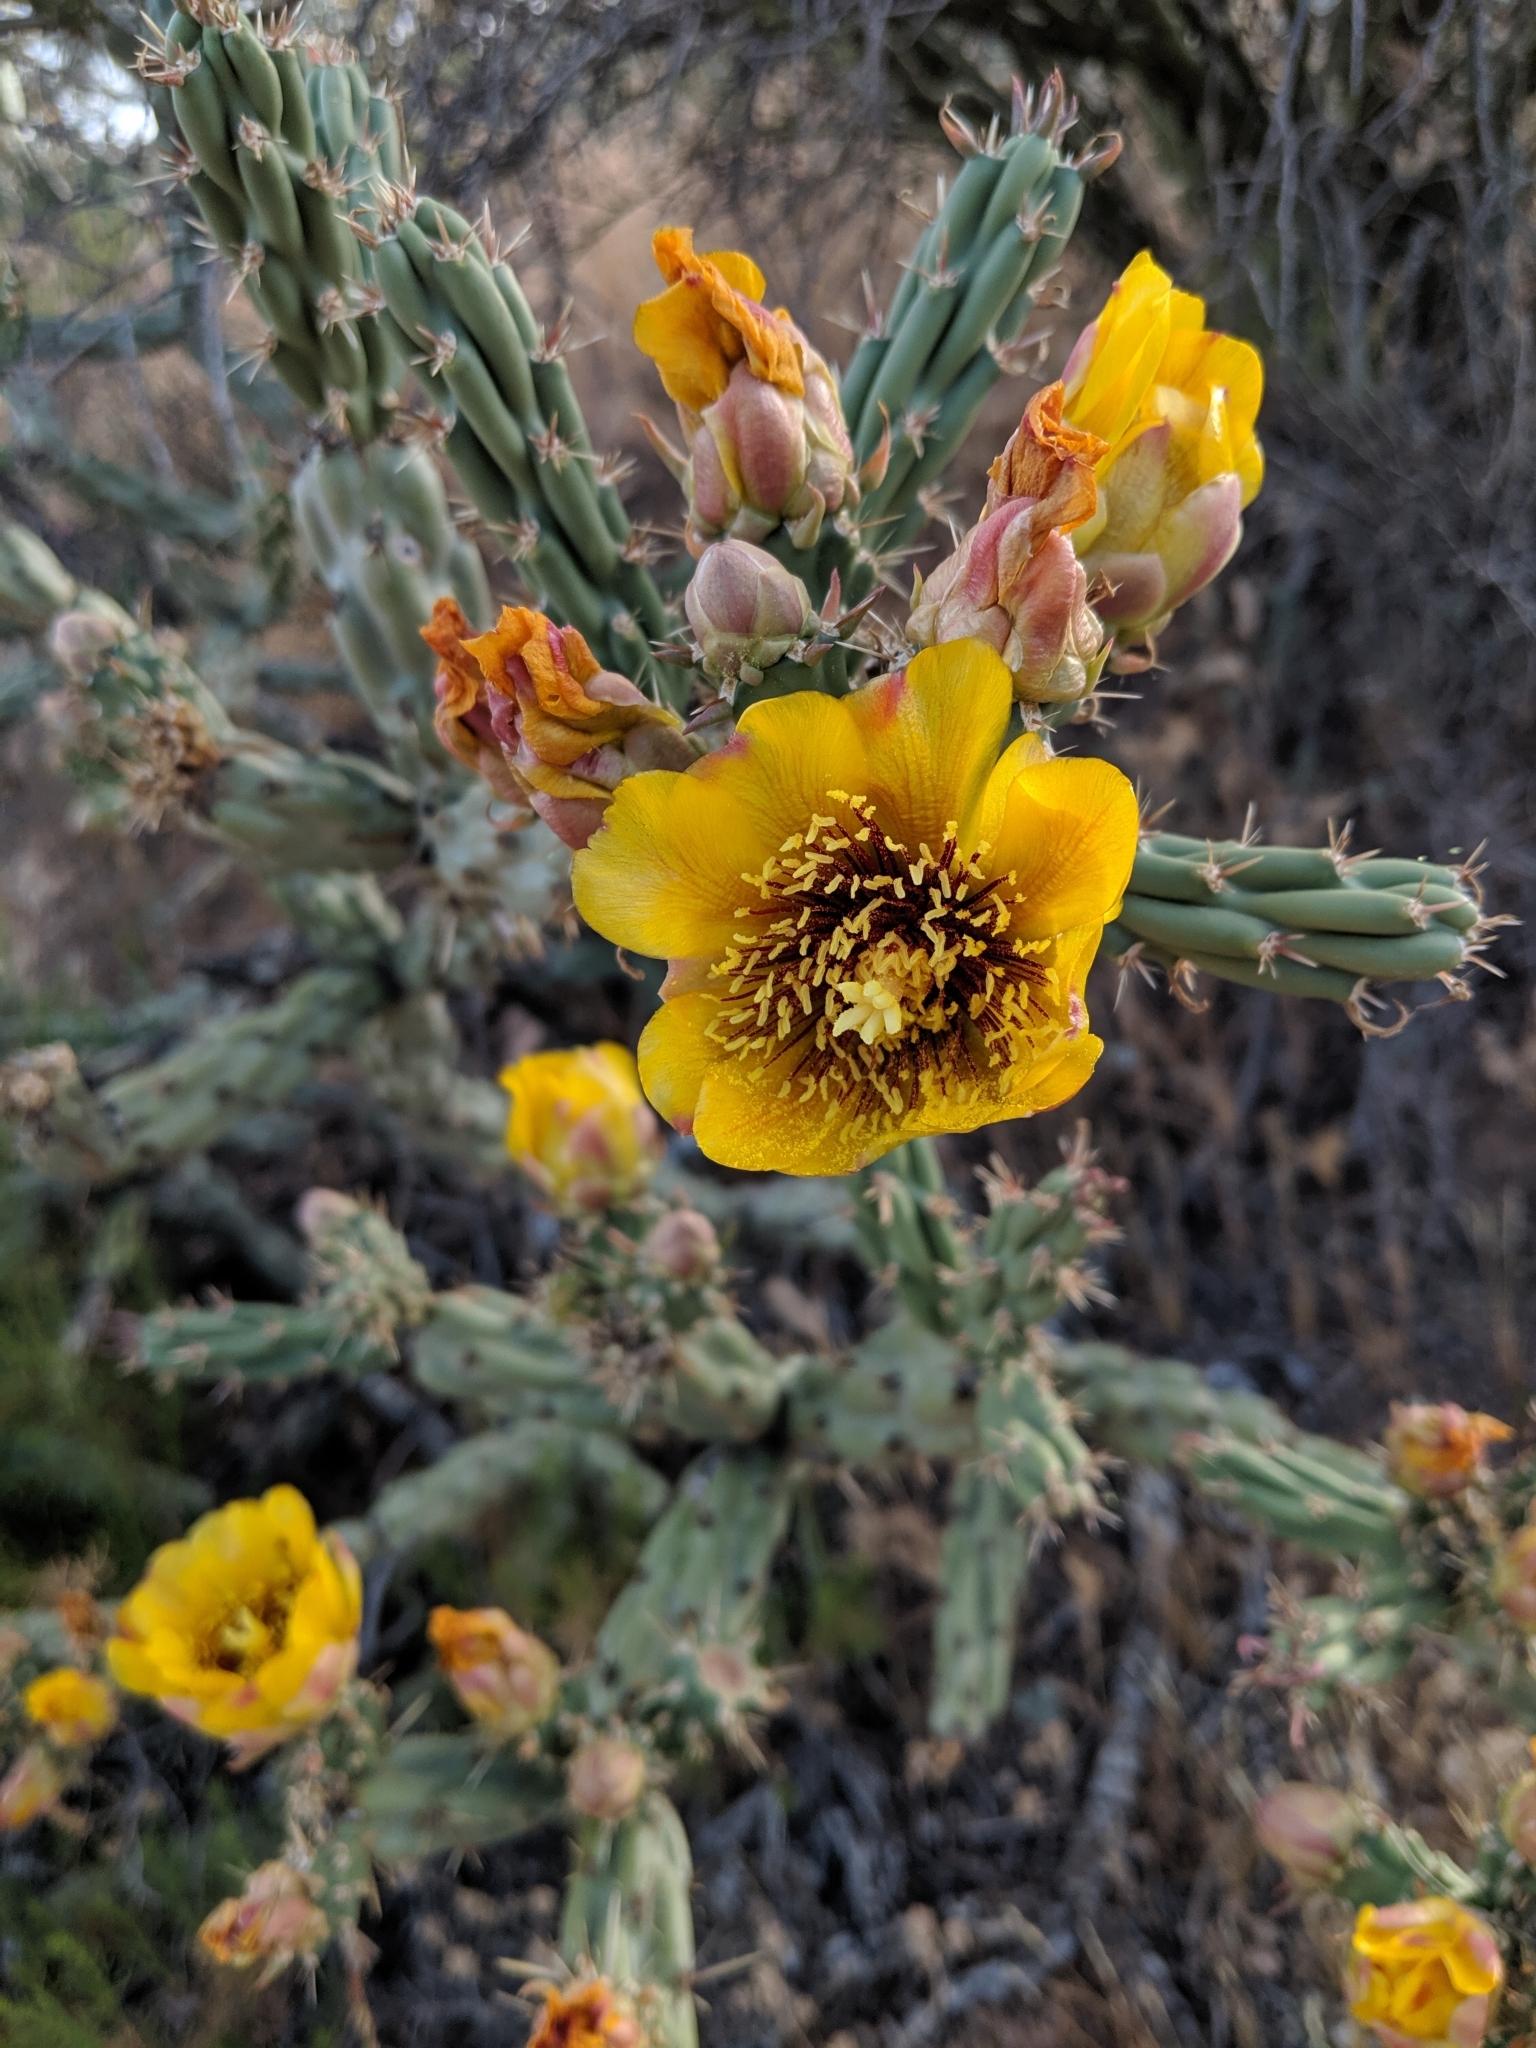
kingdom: Plantae
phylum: Tracheophyta
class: Magnoliopsida
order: Caryophyllales
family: Cactaceae
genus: Cylindropuntia
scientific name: Cylindropuntia acanthocarpa
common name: Buckhorn cholla
